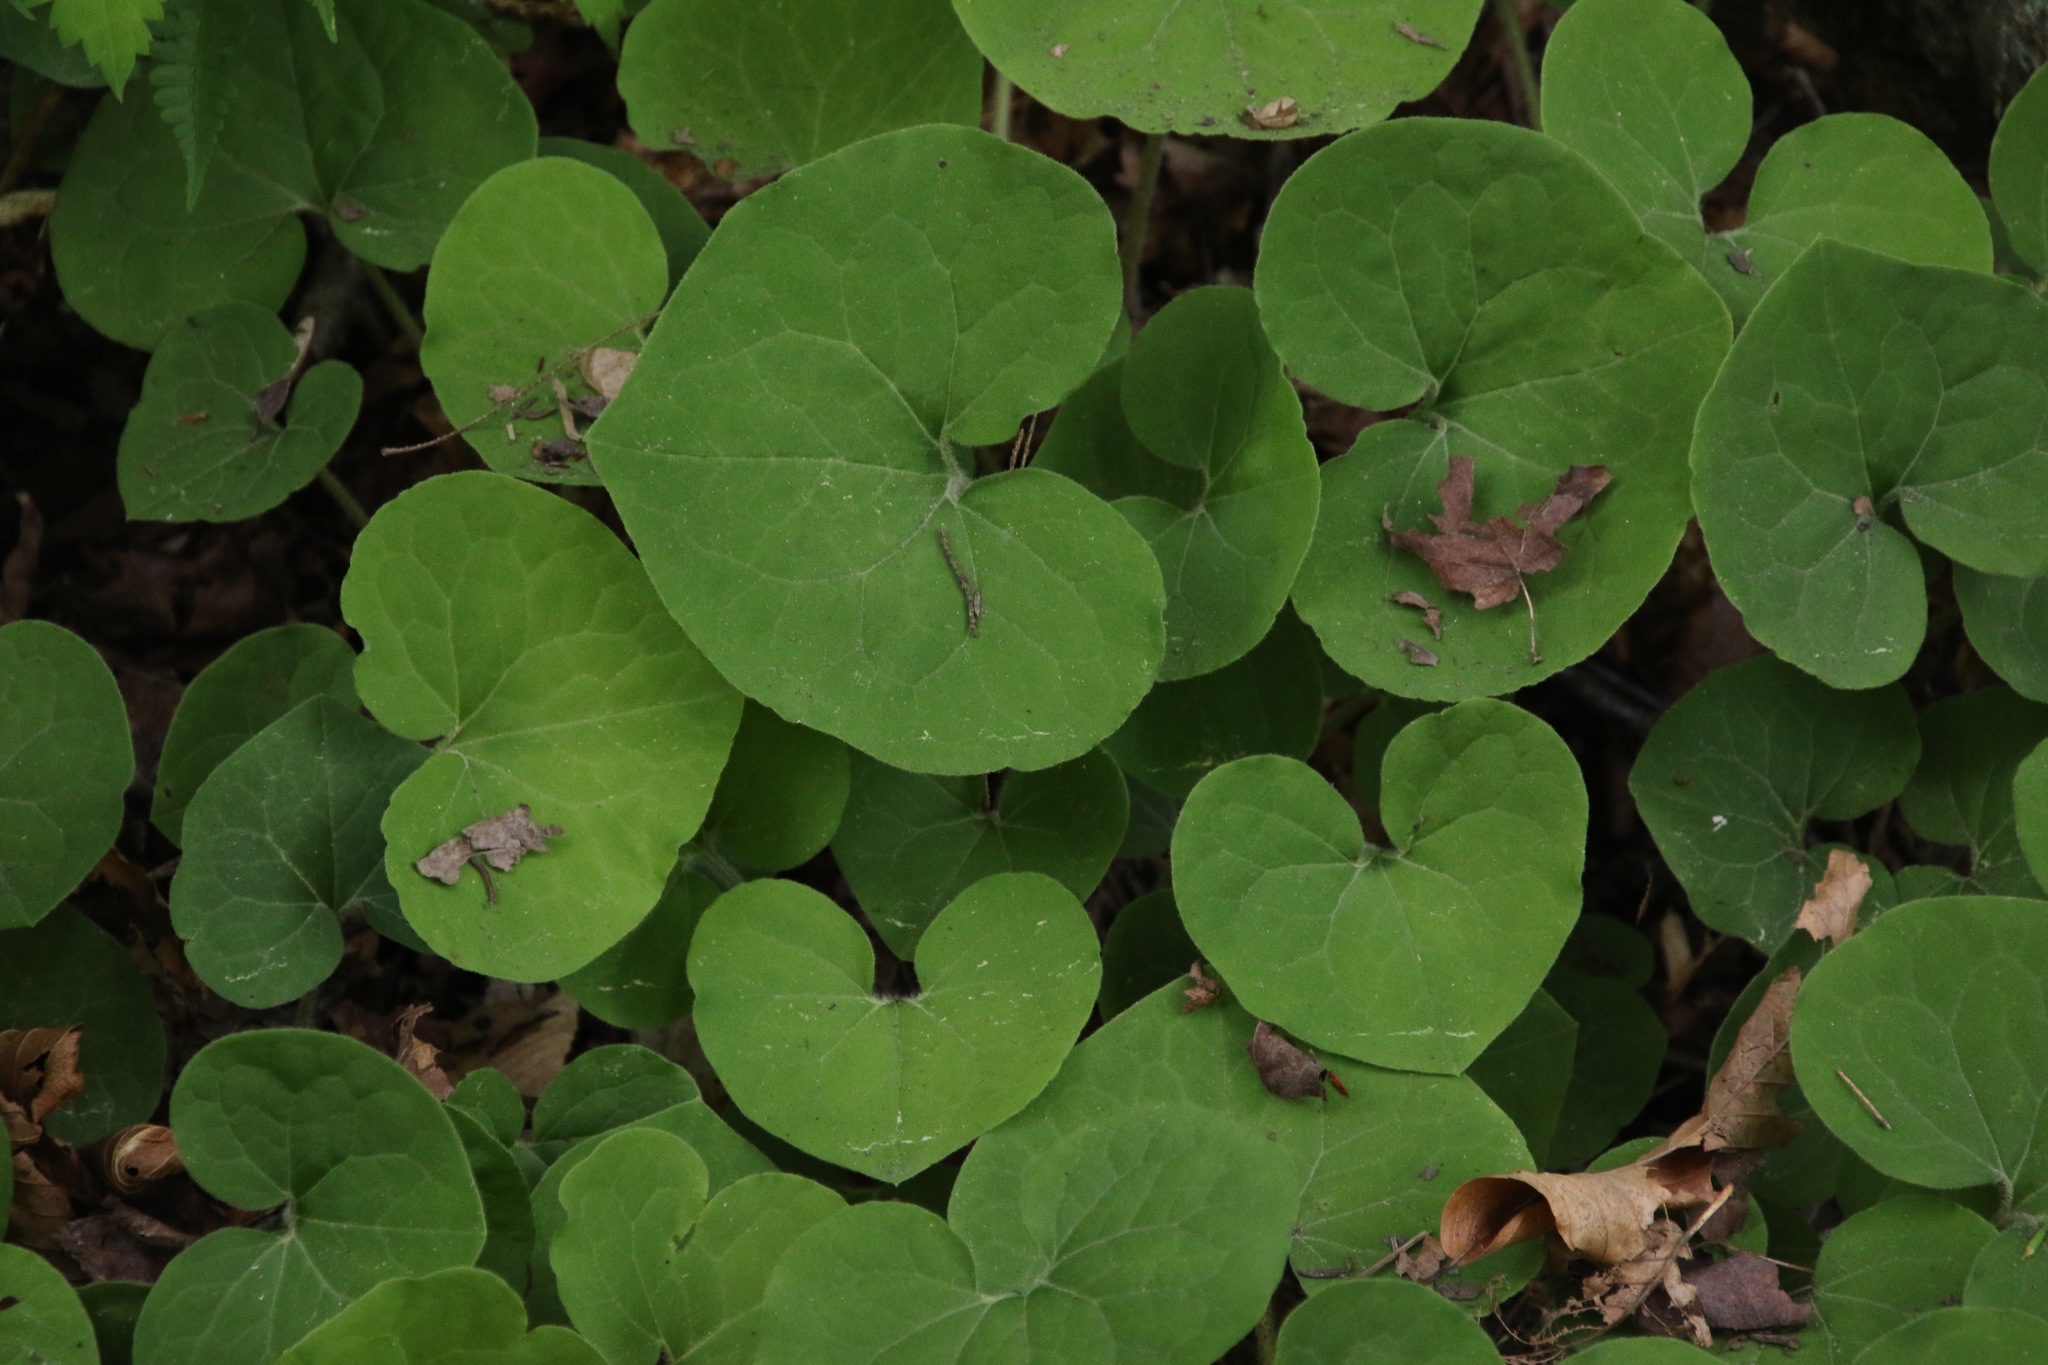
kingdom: Plantae
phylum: Tracheophyta
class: Magnoliopsida
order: Piperales
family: Aristolochiaceae
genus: Asarum
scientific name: Asarum canadense
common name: Wild ginger
